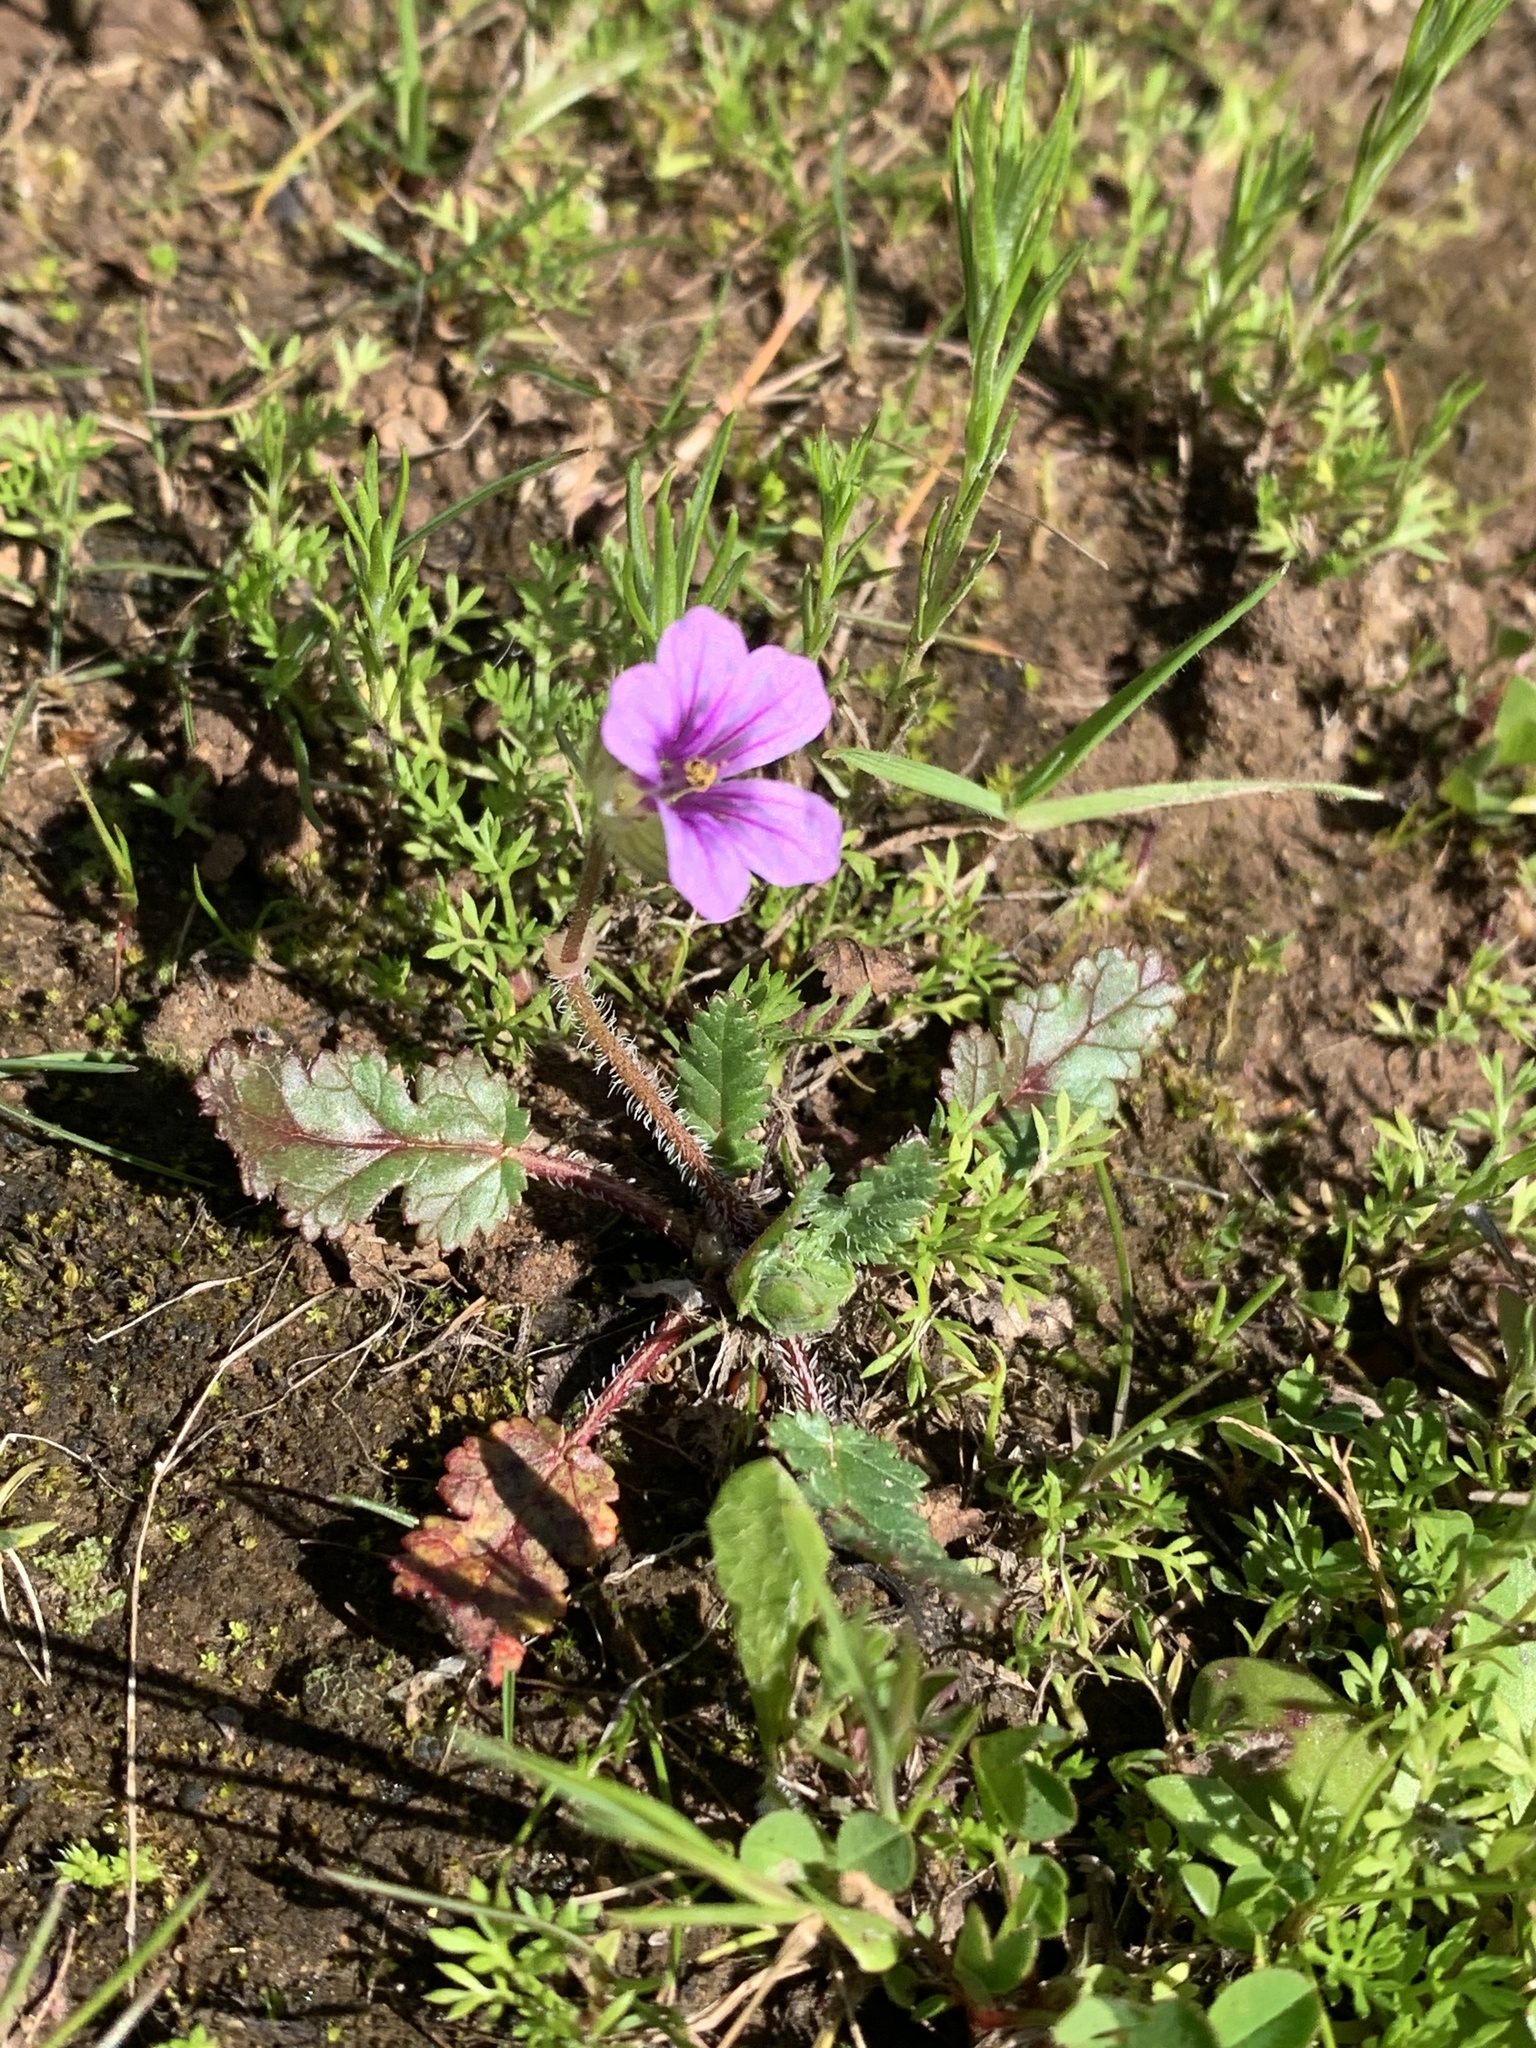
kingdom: Plantae
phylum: Tracheophyta
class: Magnoliopsida
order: Geraniales
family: Geraniaceae
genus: Erodium
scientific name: Erodium botrys
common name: Mediterranean stork's-bill
